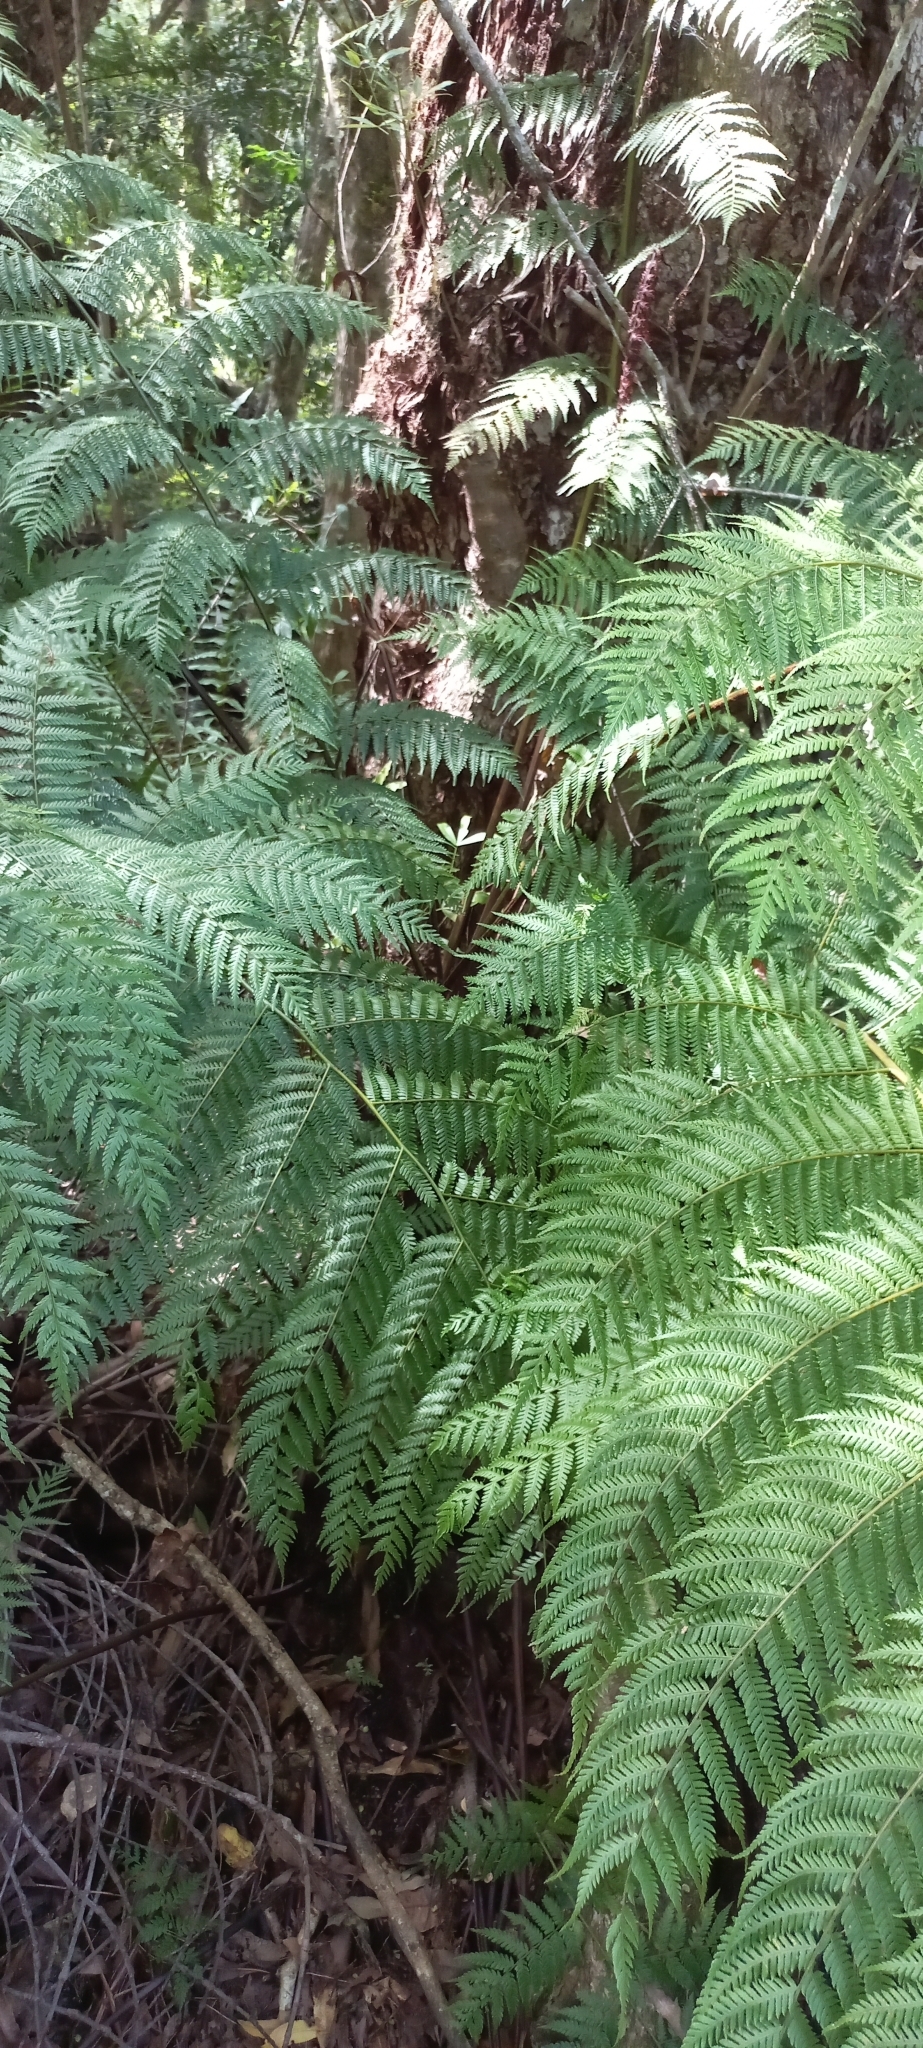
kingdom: Plantae
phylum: Tracheophyta
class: Polypodiopsida
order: Cyatheales
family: Cyatheaceae
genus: Gymnosphaera
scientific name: Gymnosphaera capensis
